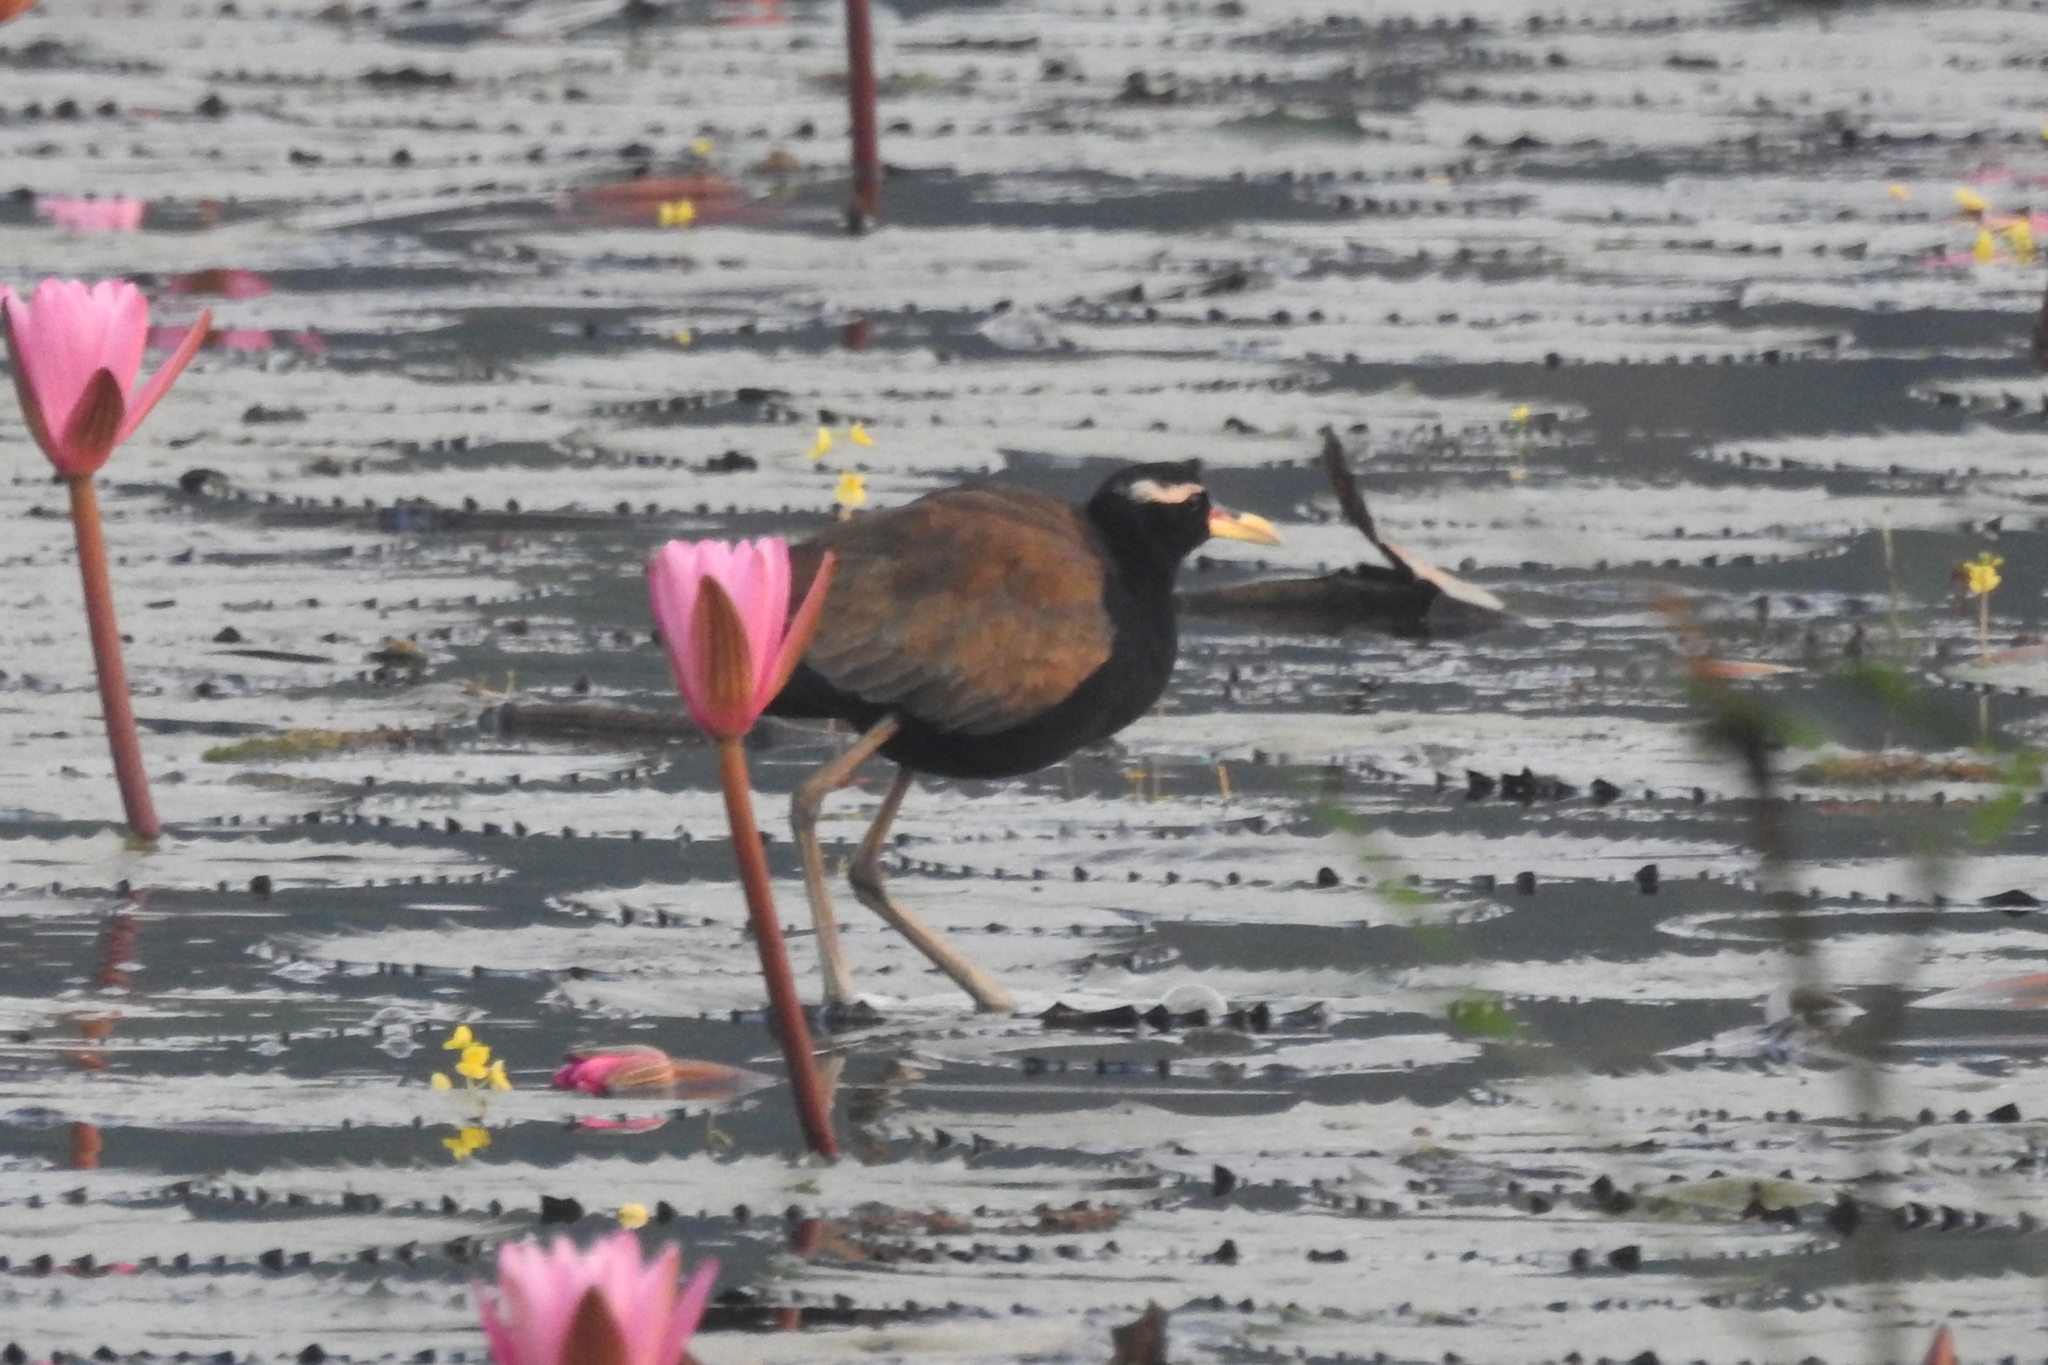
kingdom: Animalia
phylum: Chordata
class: Aves
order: Charadriiformes
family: Jacanidae
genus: Metopidius
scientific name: Metopidius indicus
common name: Bronze-winged jacana
